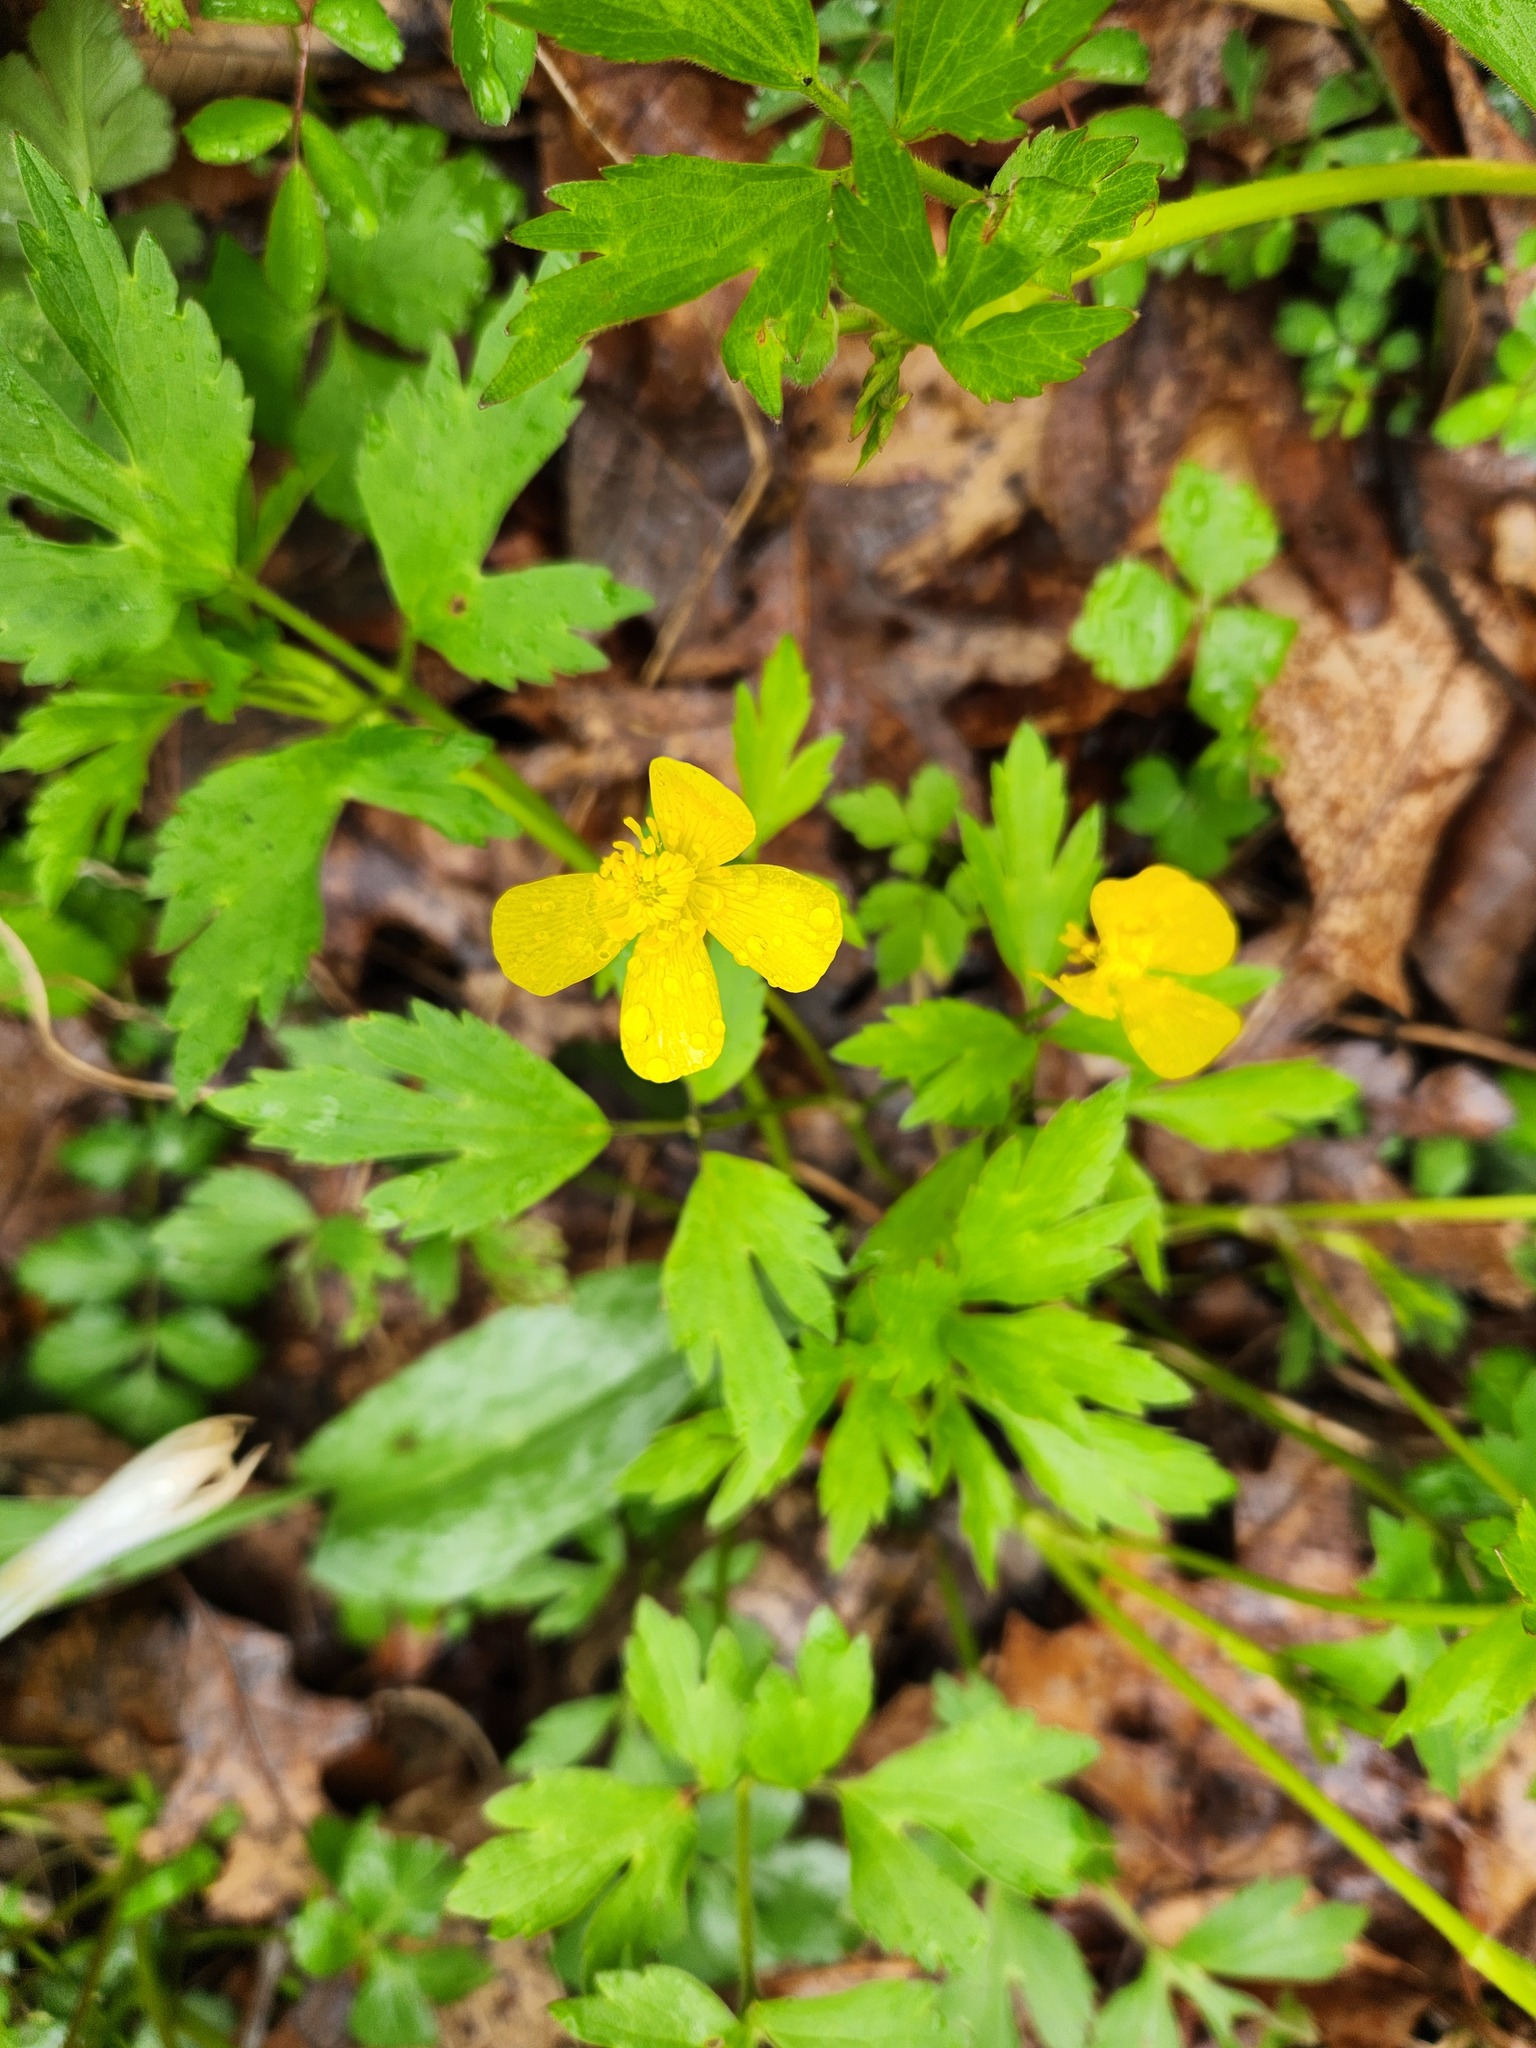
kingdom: Plantae
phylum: Tracheophyta
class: Magnoliopsida
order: Ranunculales
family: Ranunculaceae
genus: Ranunculus
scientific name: Ranunculus hispidus
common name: Bristly buttercup
